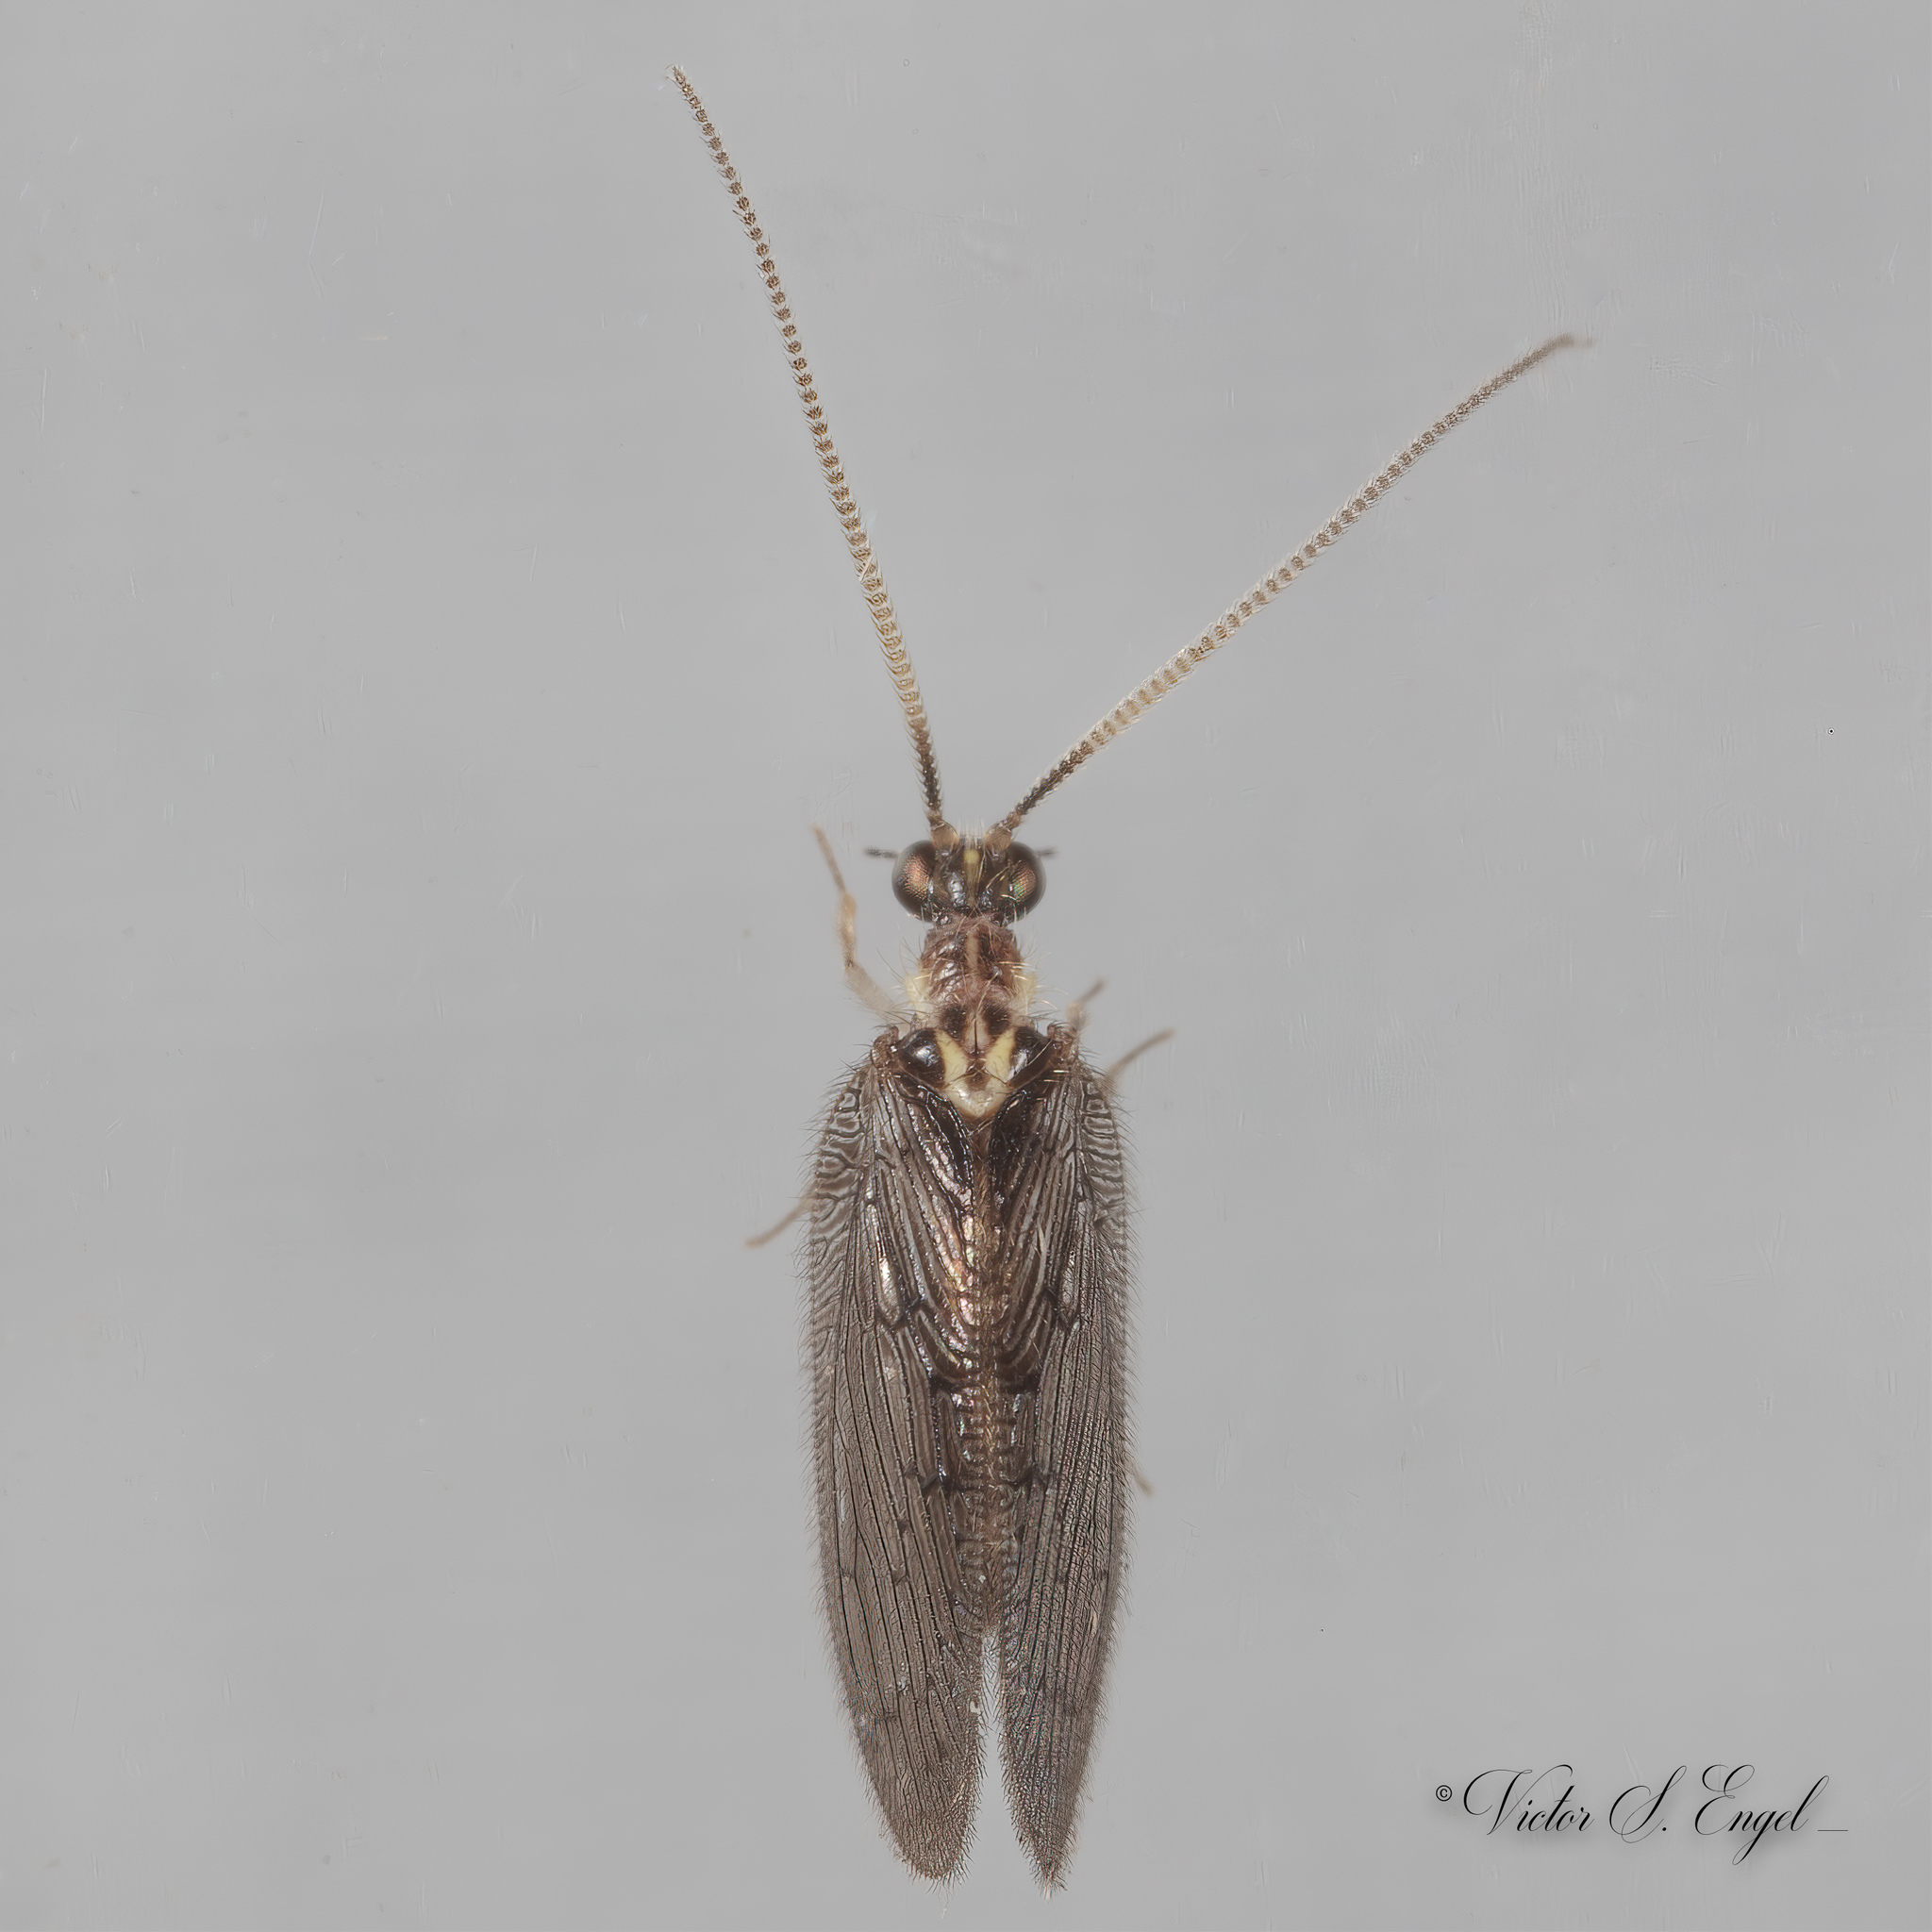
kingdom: Animalia
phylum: Arthropoda
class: Insecta
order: Neuroptera
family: Hemerobiidae
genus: Sympherobius
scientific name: Sympherobius occidentalis
